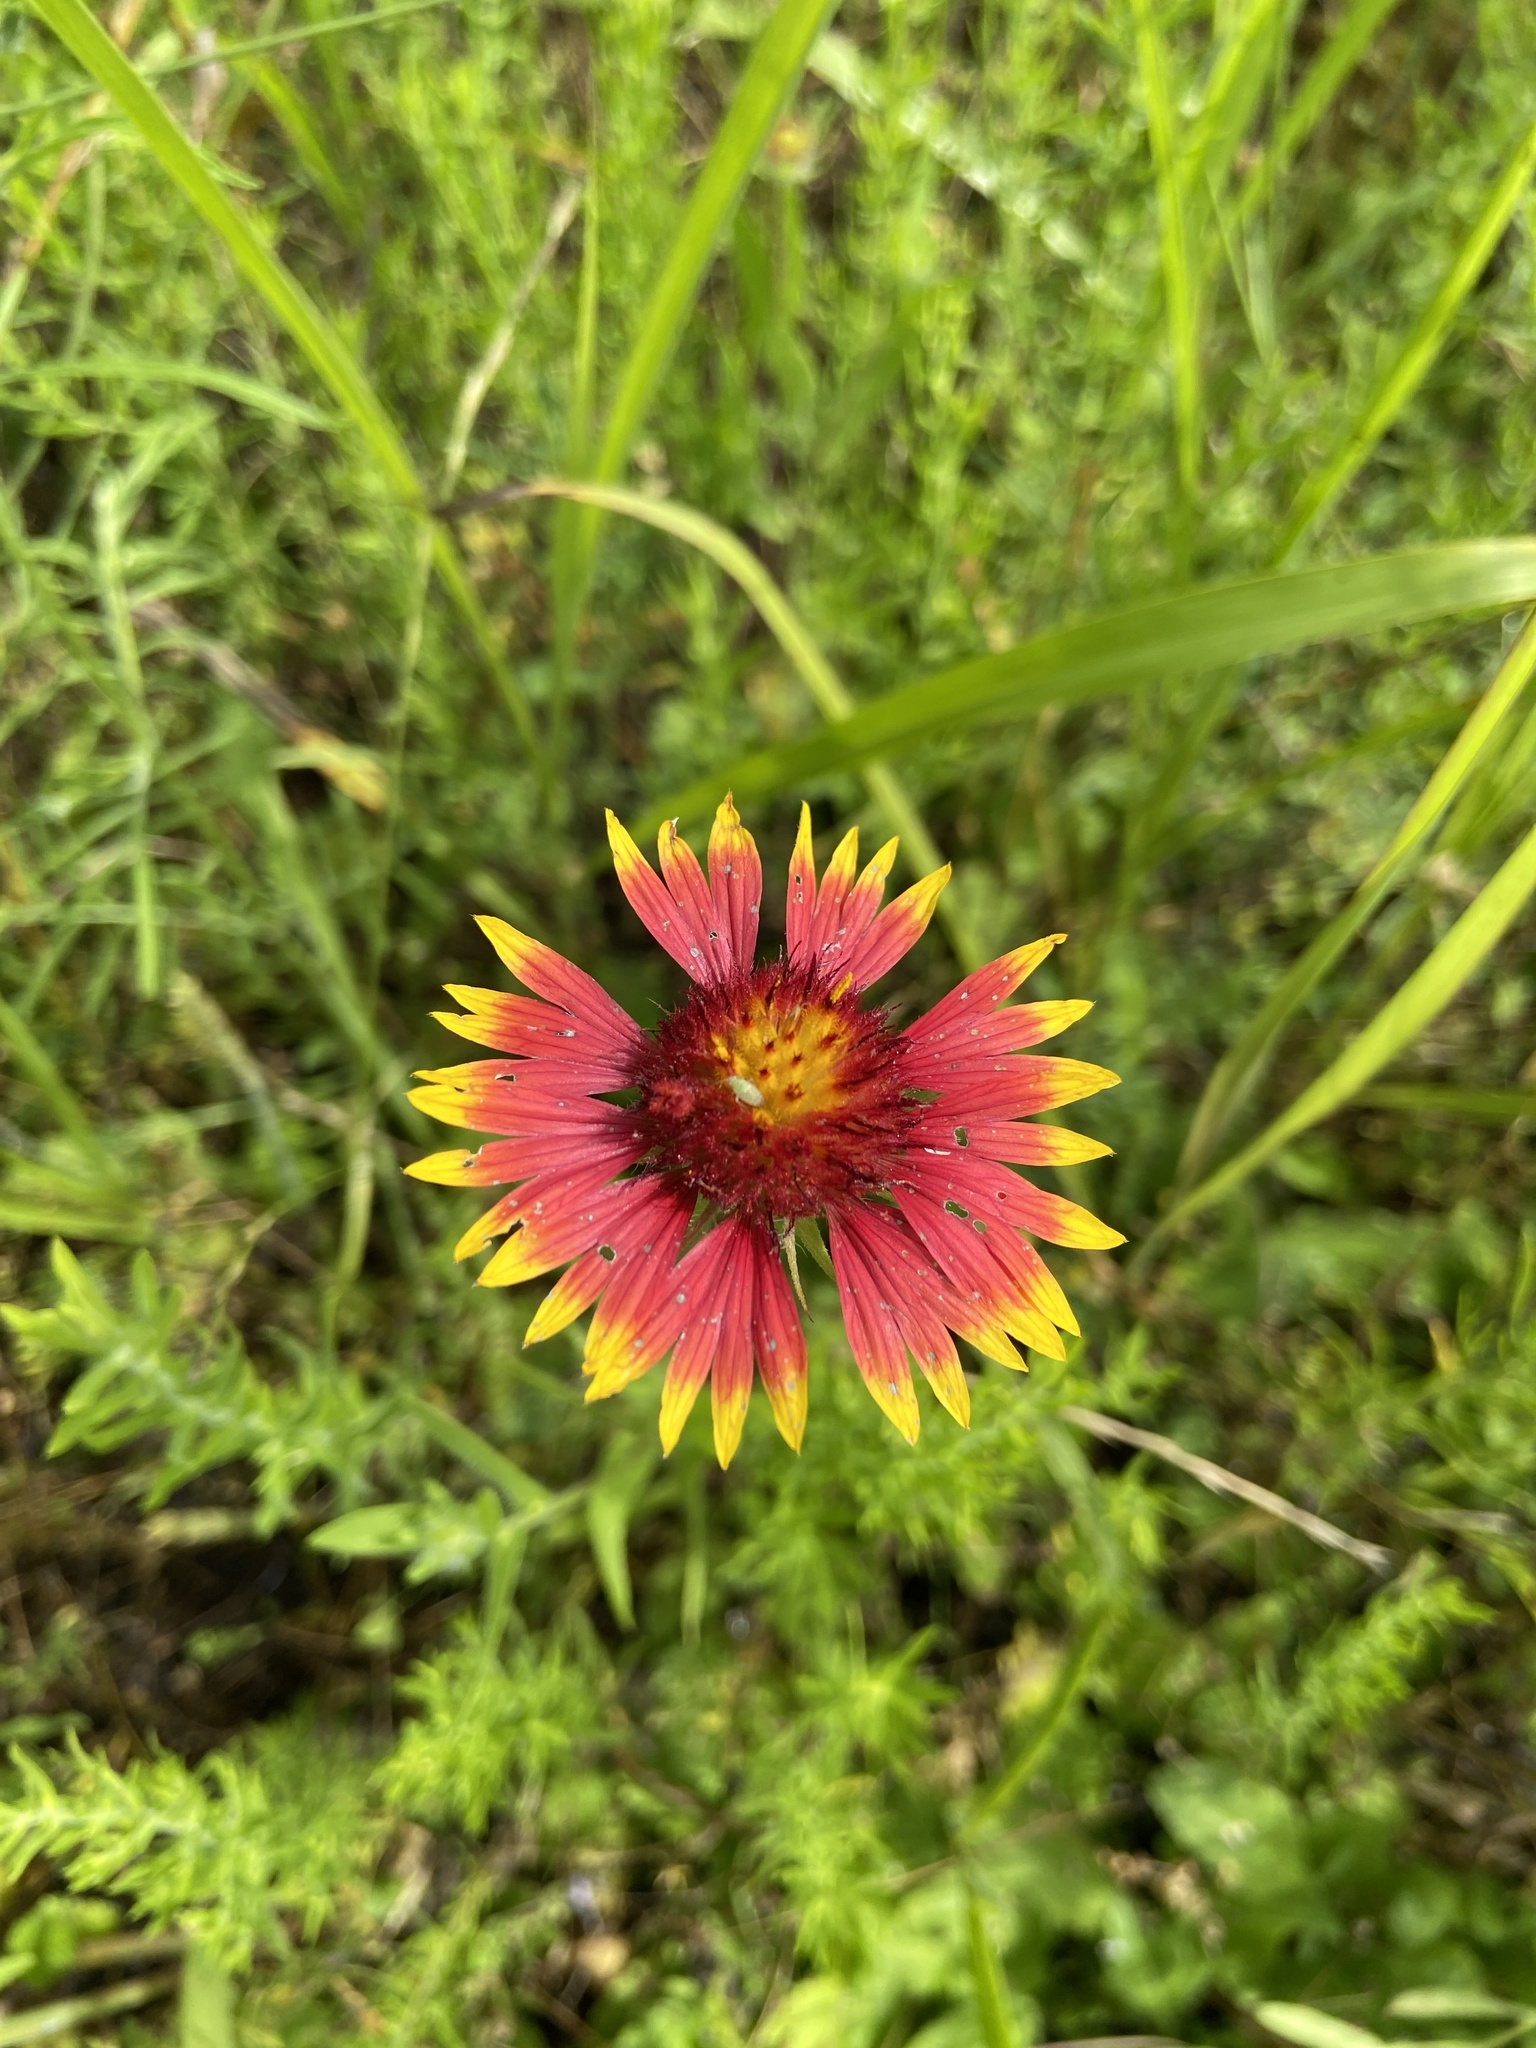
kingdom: Plantae
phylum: Tracheophyta
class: Magnoliopsida
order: Asterales
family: Asteraceae
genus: Gaillardia
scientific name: Gaillardia pulchella
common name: Firewheel
